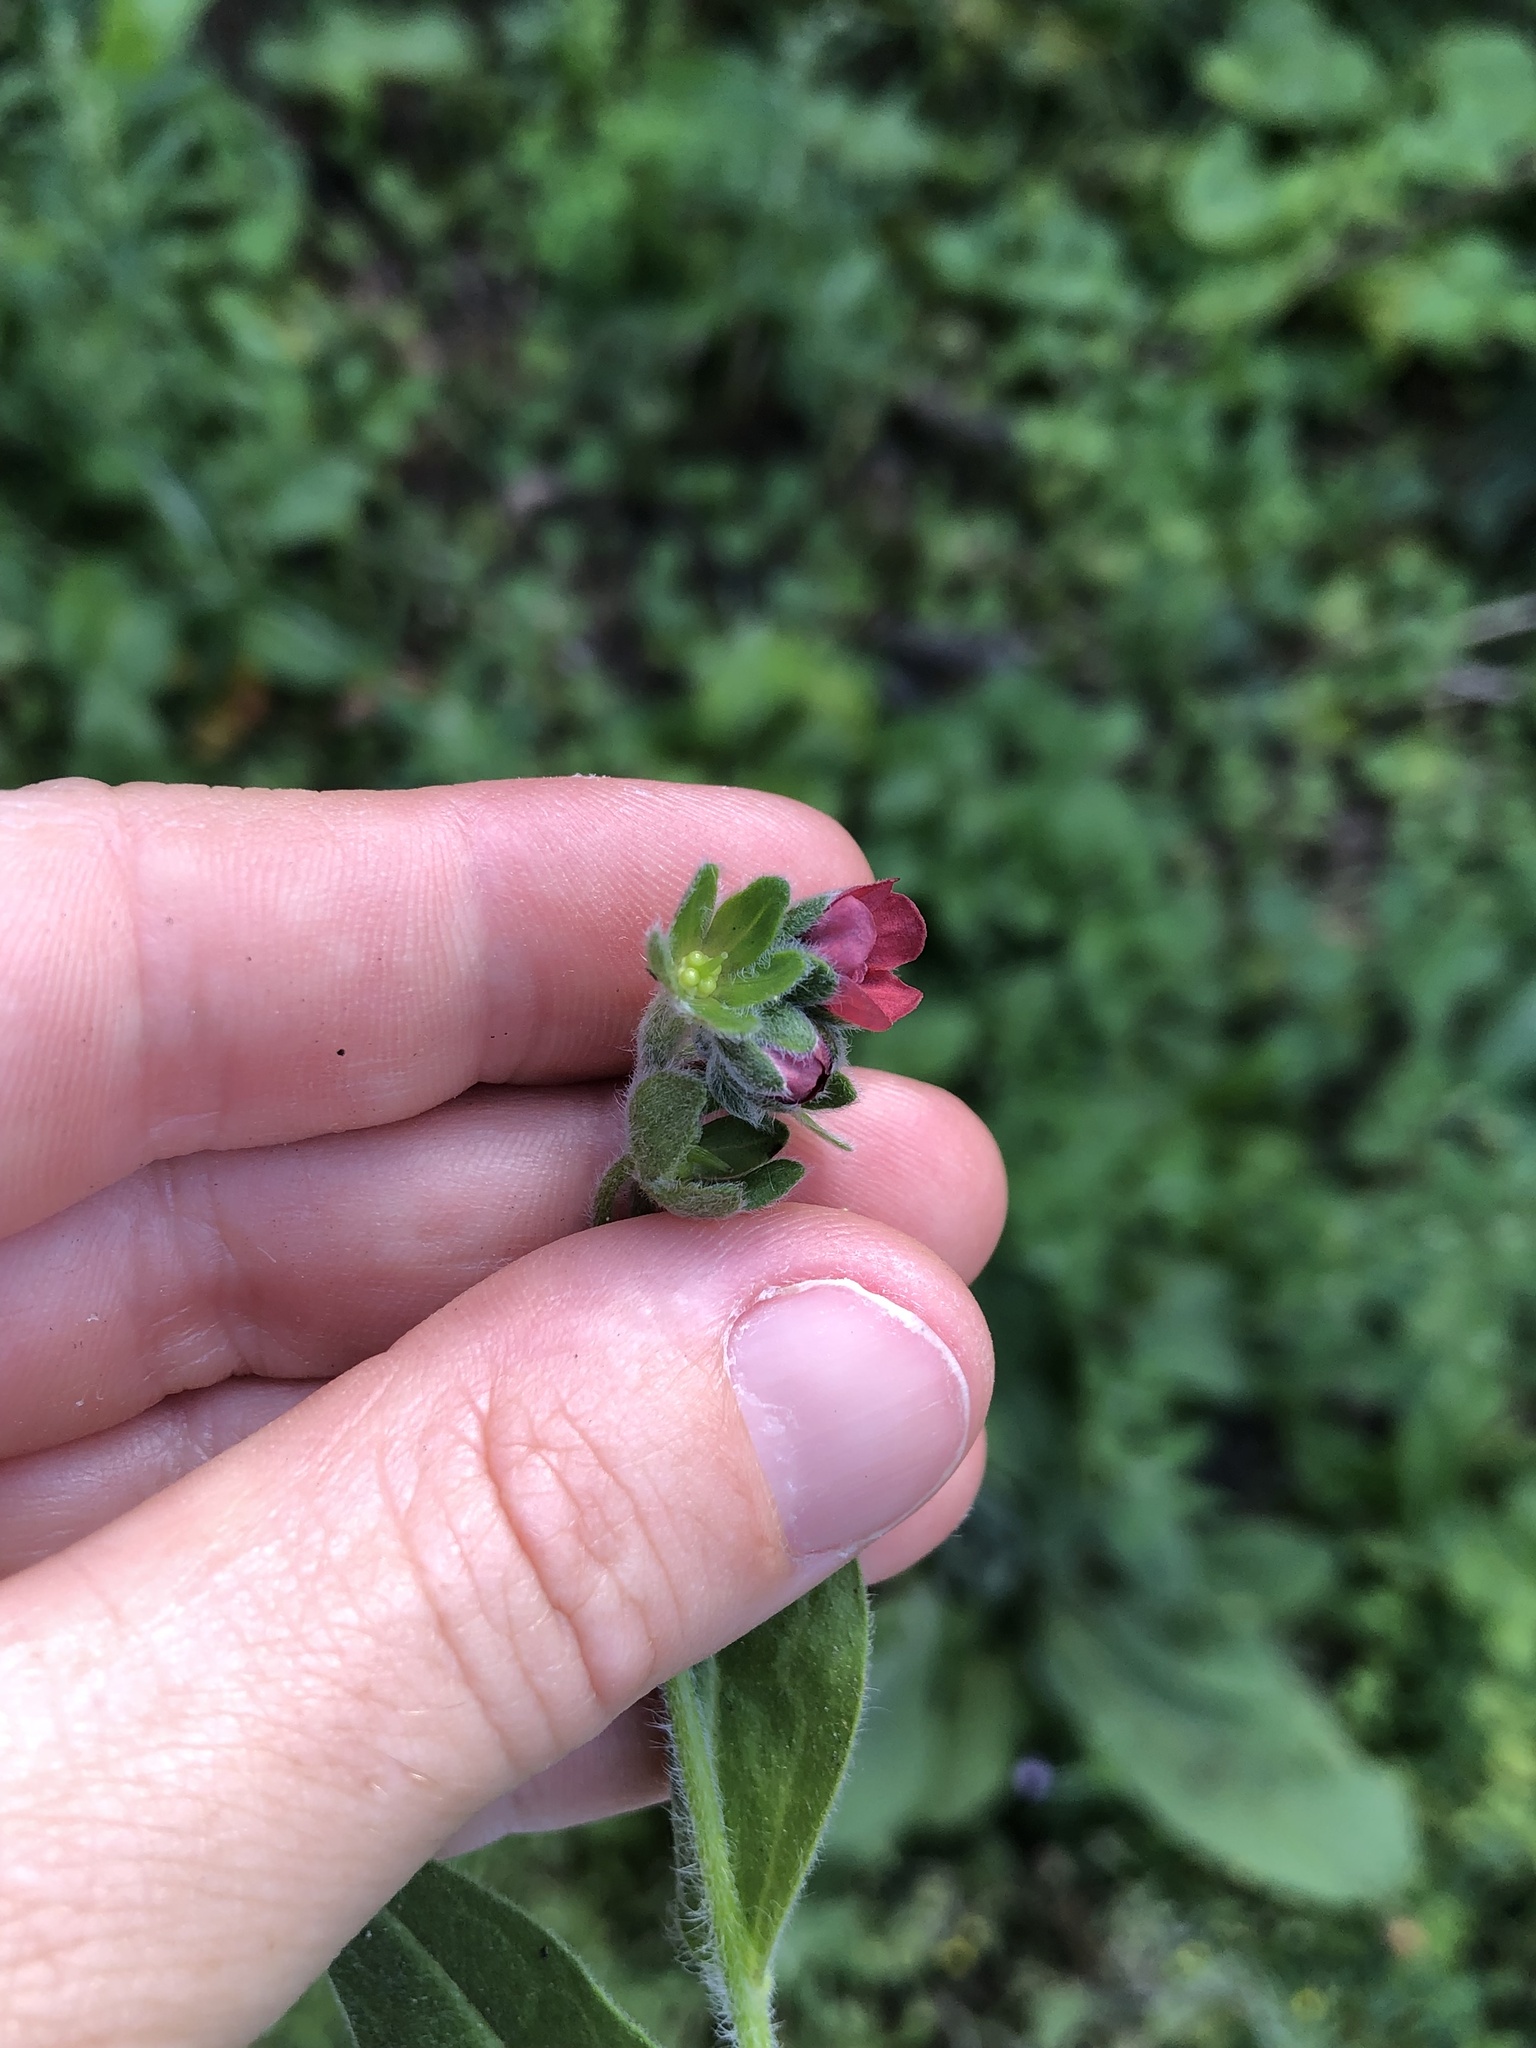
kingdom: Plantae
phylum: Tracheophyta
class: Magnoliopsida
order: Boraginales
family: Boraginaceae
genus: Cynoglossum
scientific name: Cynoglossum officinale
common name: Hound's-tongue
